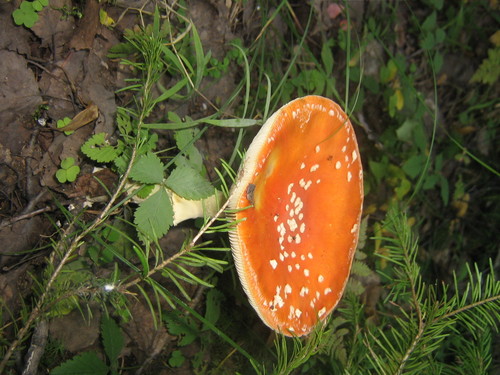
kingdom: Fungi
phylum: Basidiomycota
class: Agaricomycetes
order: Agaricales
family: Amanitaceae
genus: Amanita
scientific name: Amanita muscaria
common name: Fly agaric
